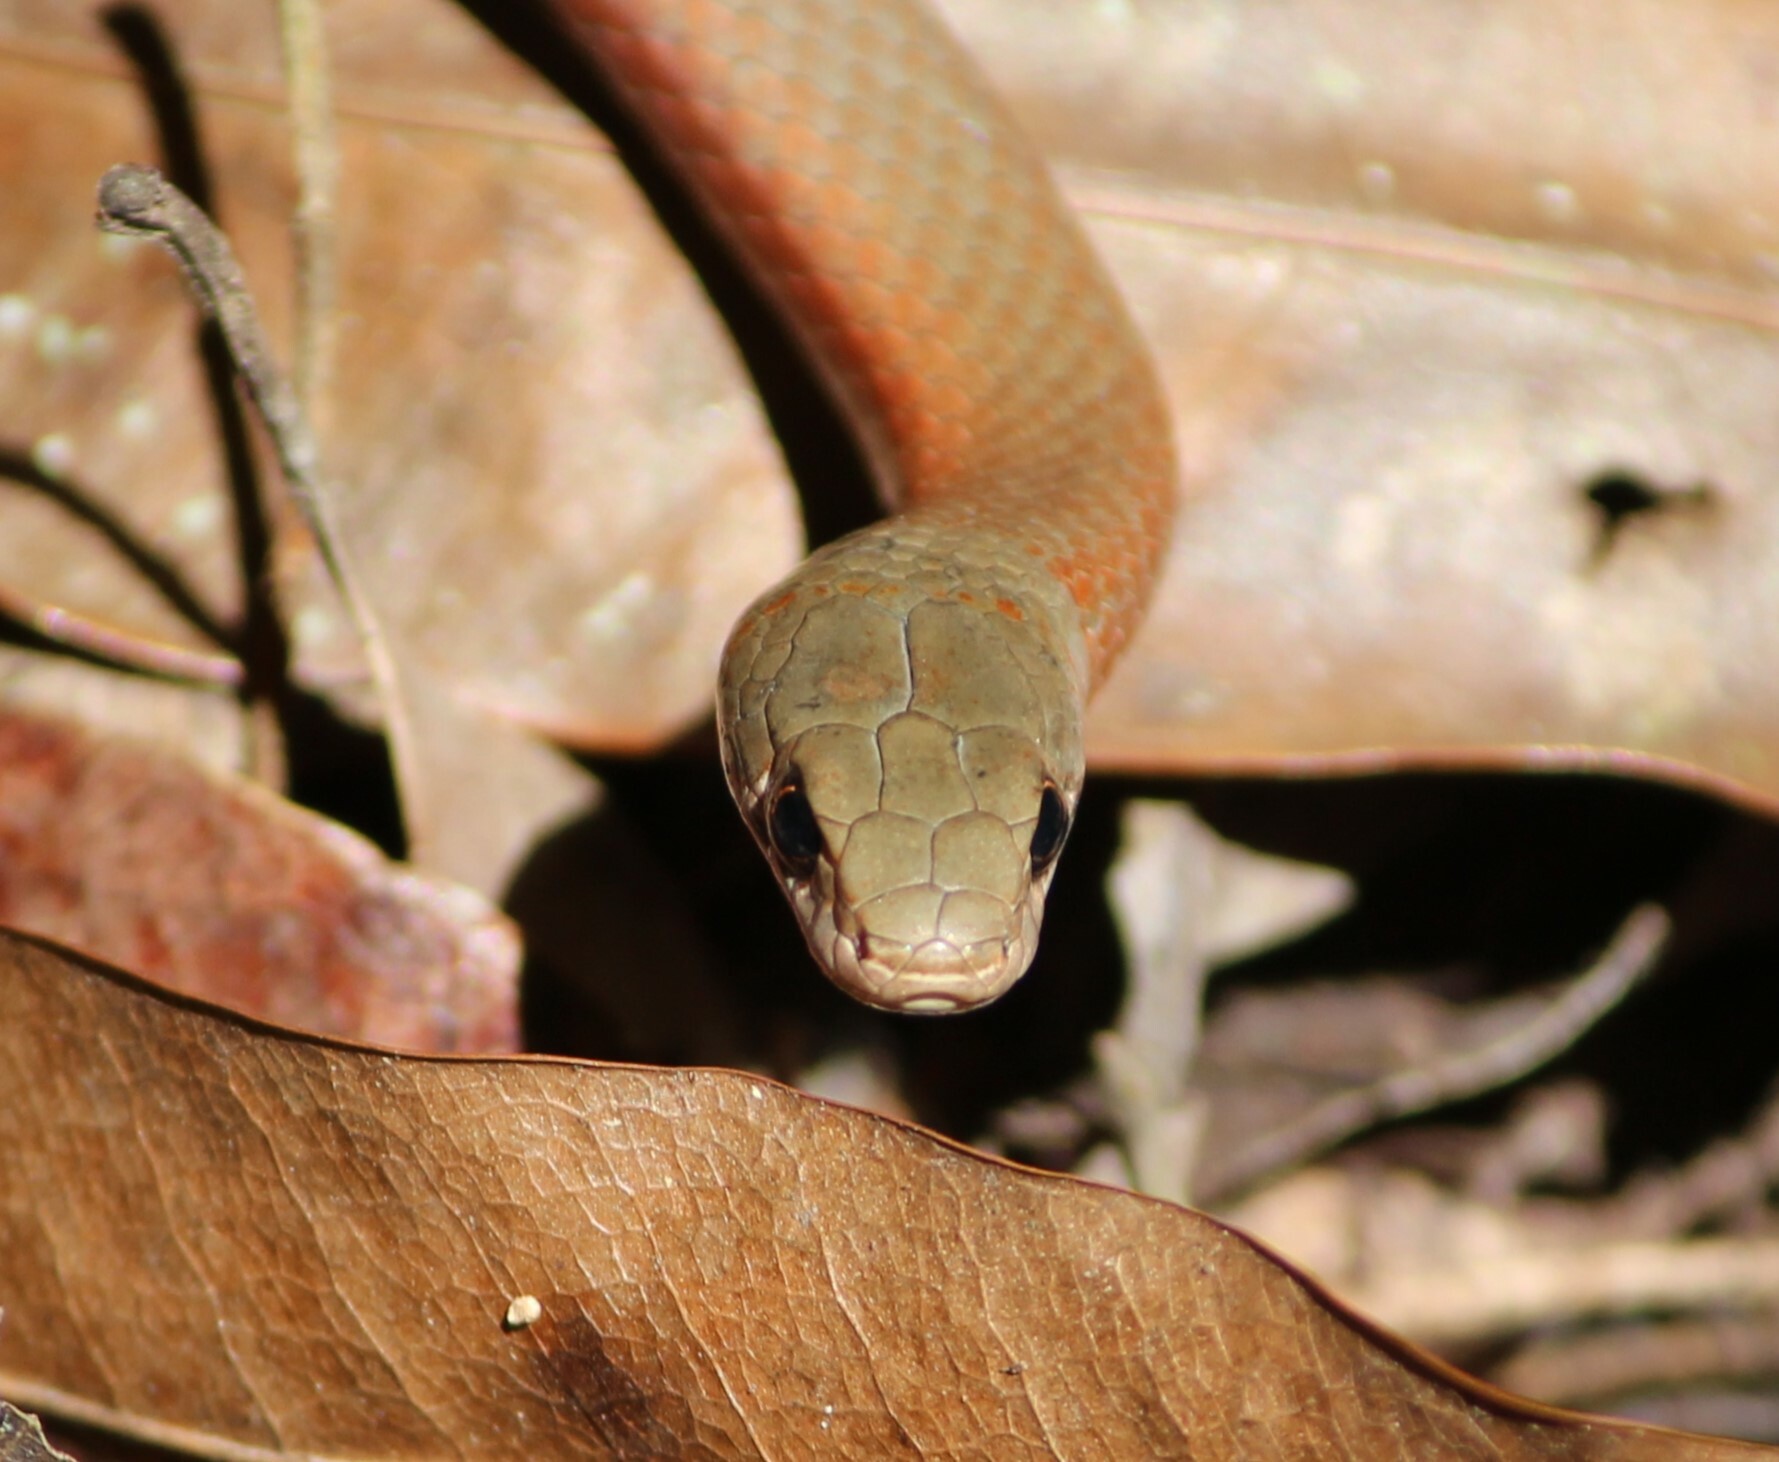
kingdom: Animalia
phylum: Chordata
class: Squamata
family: Elapidae
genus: Demansia
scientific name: Demansia torquata
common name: Collared whip snake
